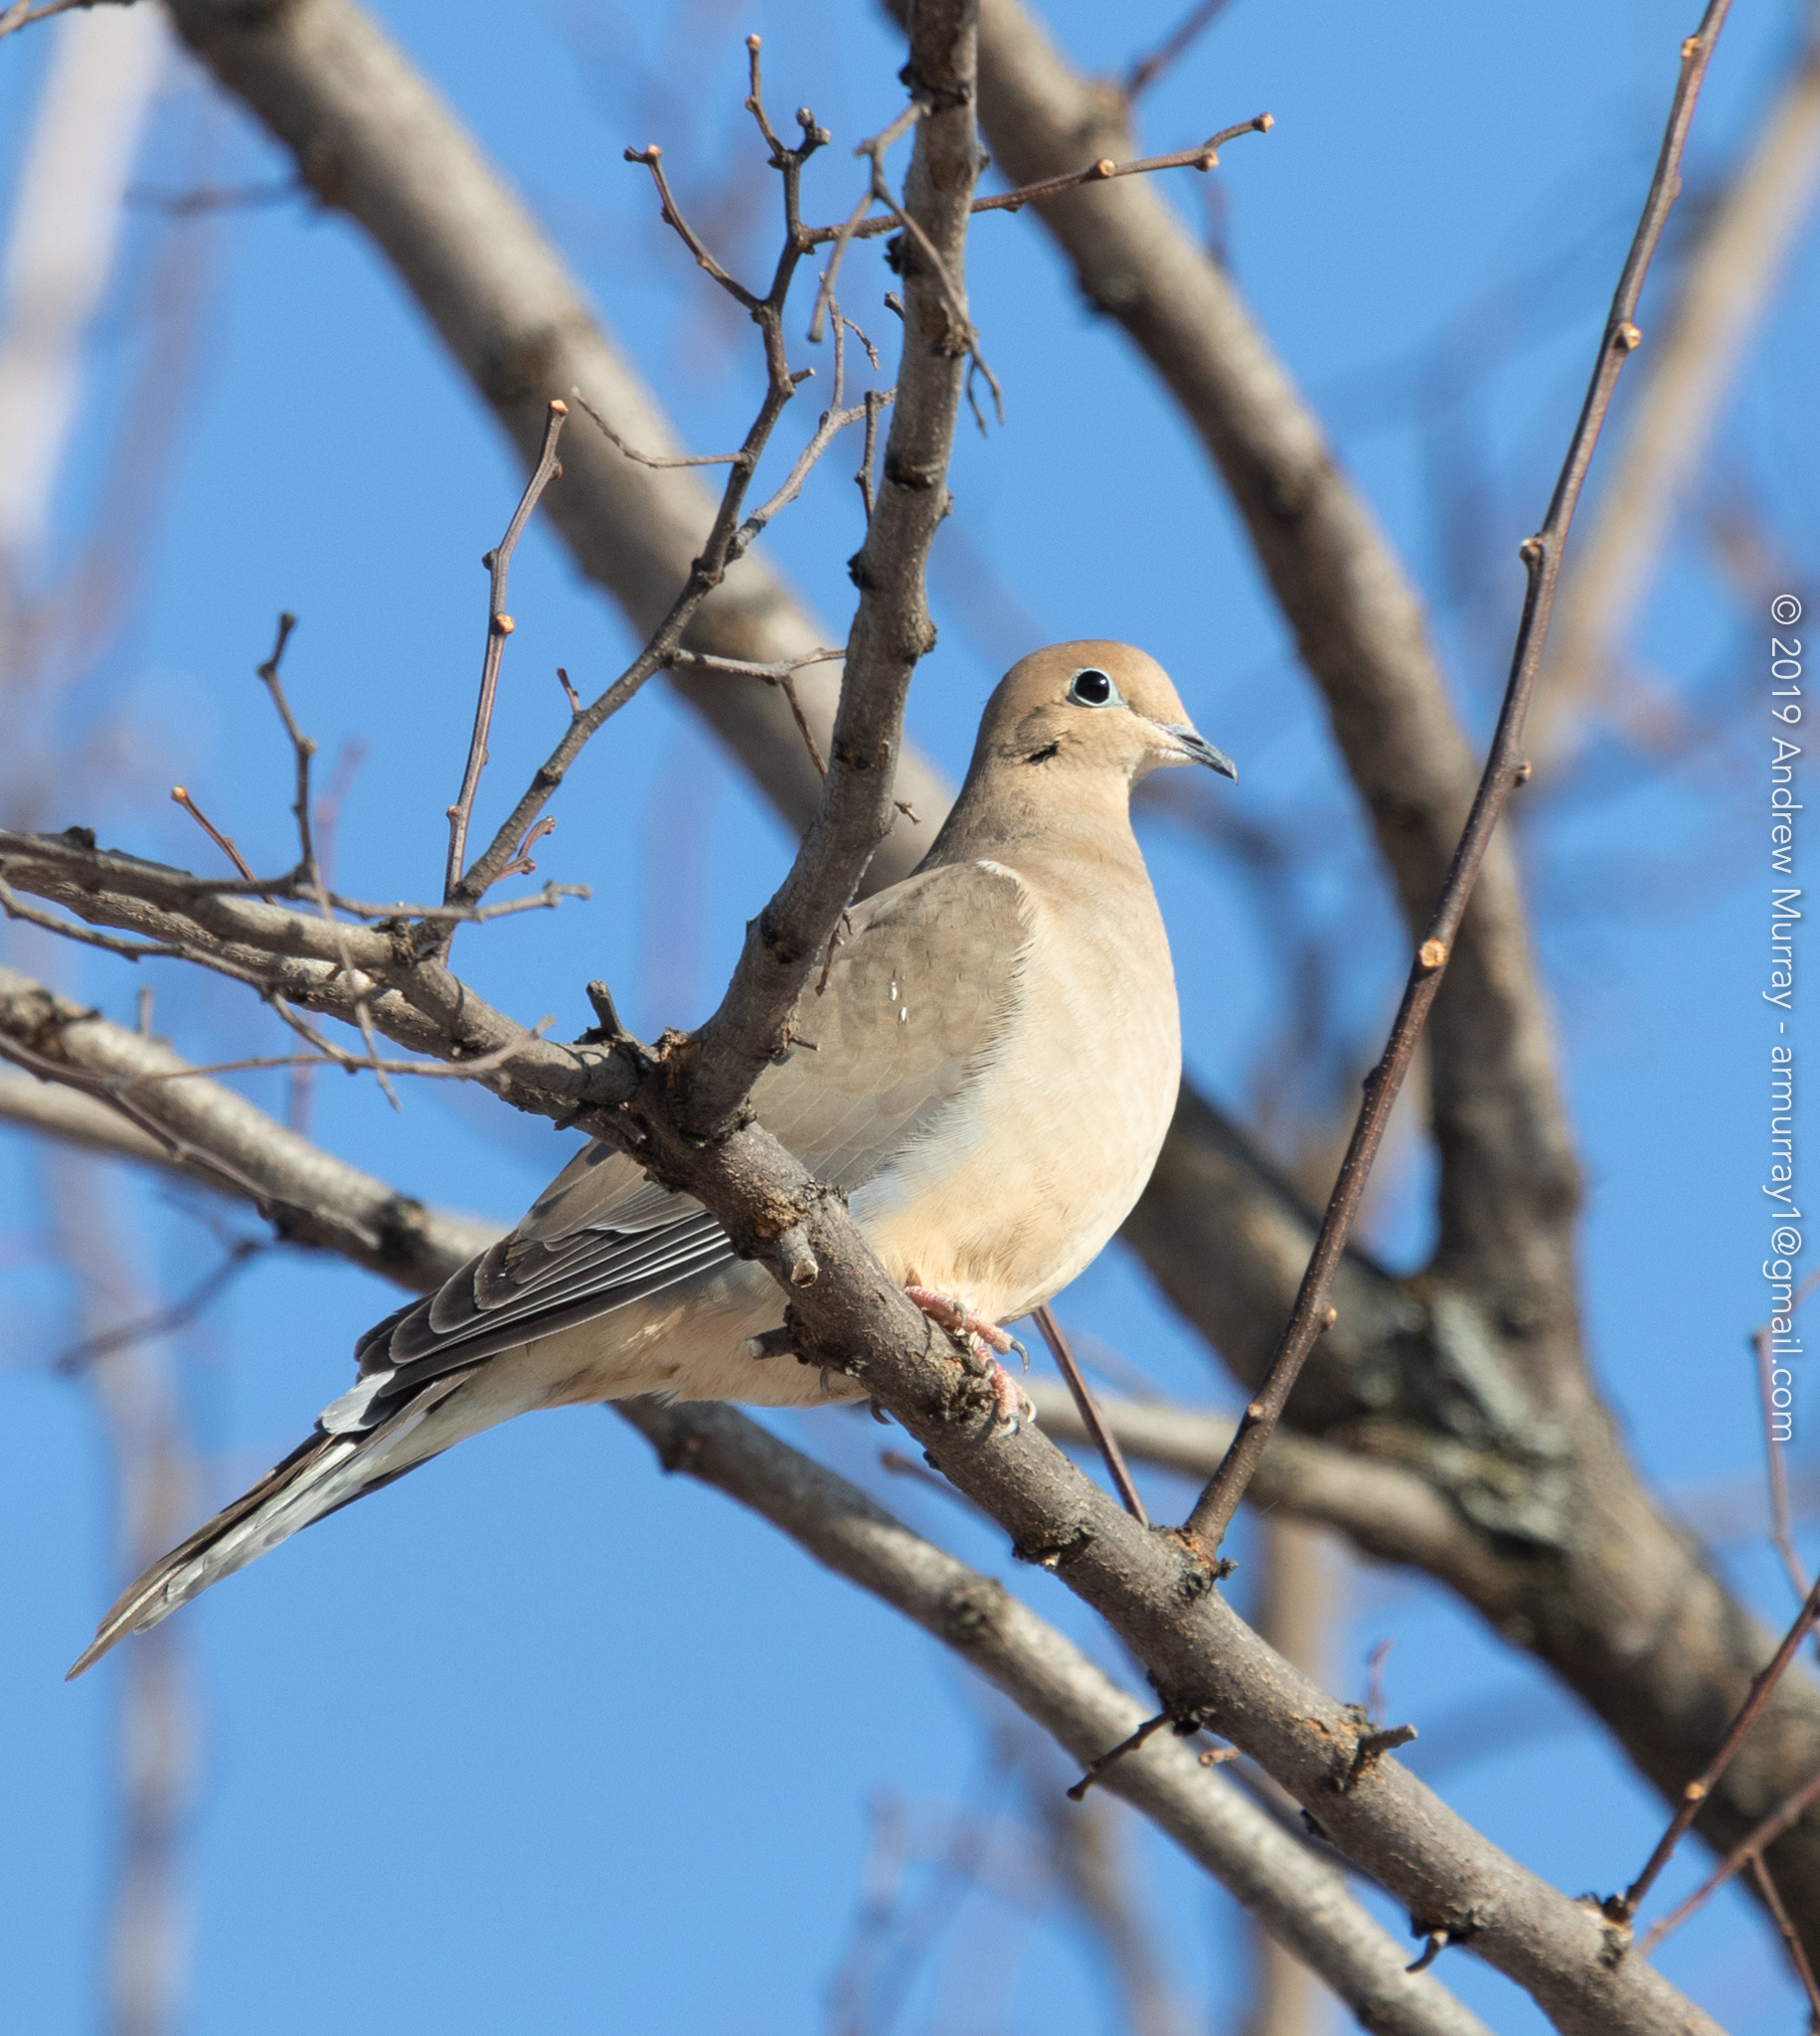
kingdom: Animalia
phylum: Chordata
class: Aves
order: Columbiformes
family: Columbidae
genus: Zenaida
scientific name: Zenaida macroura
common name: Mourning dove
